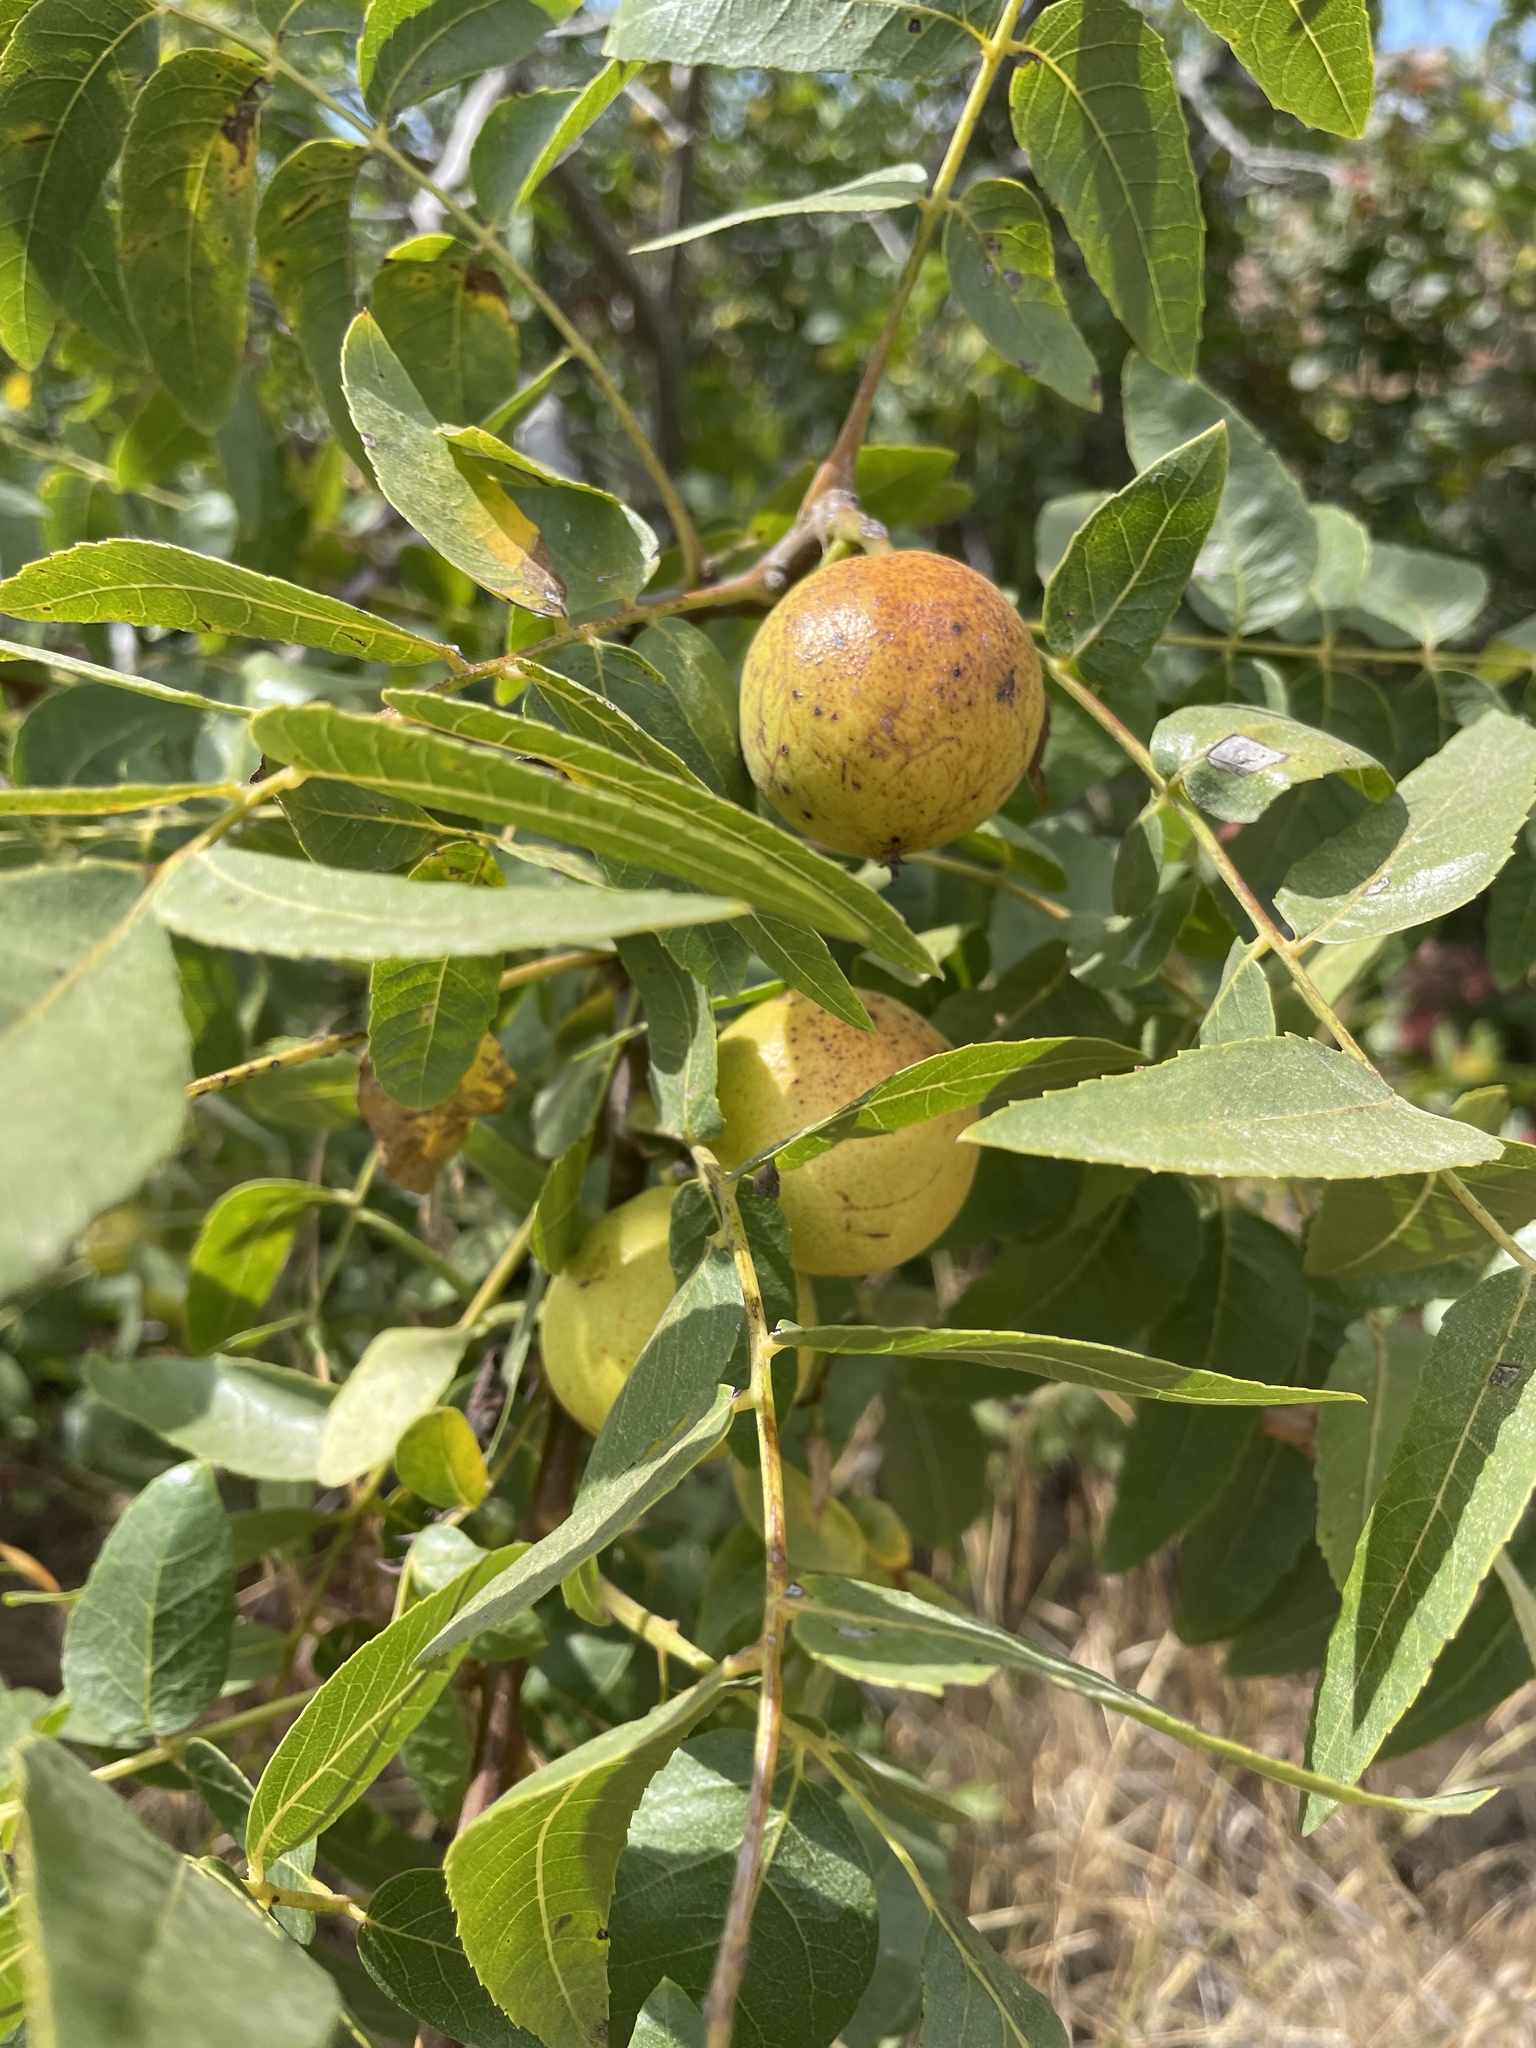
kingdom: Plantae
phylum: Tracheophyta
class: Magnoliopsida
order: Fagales
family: Juglandaceae
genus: Juglans
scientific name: Juglans californica
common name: Southern california black walnut
